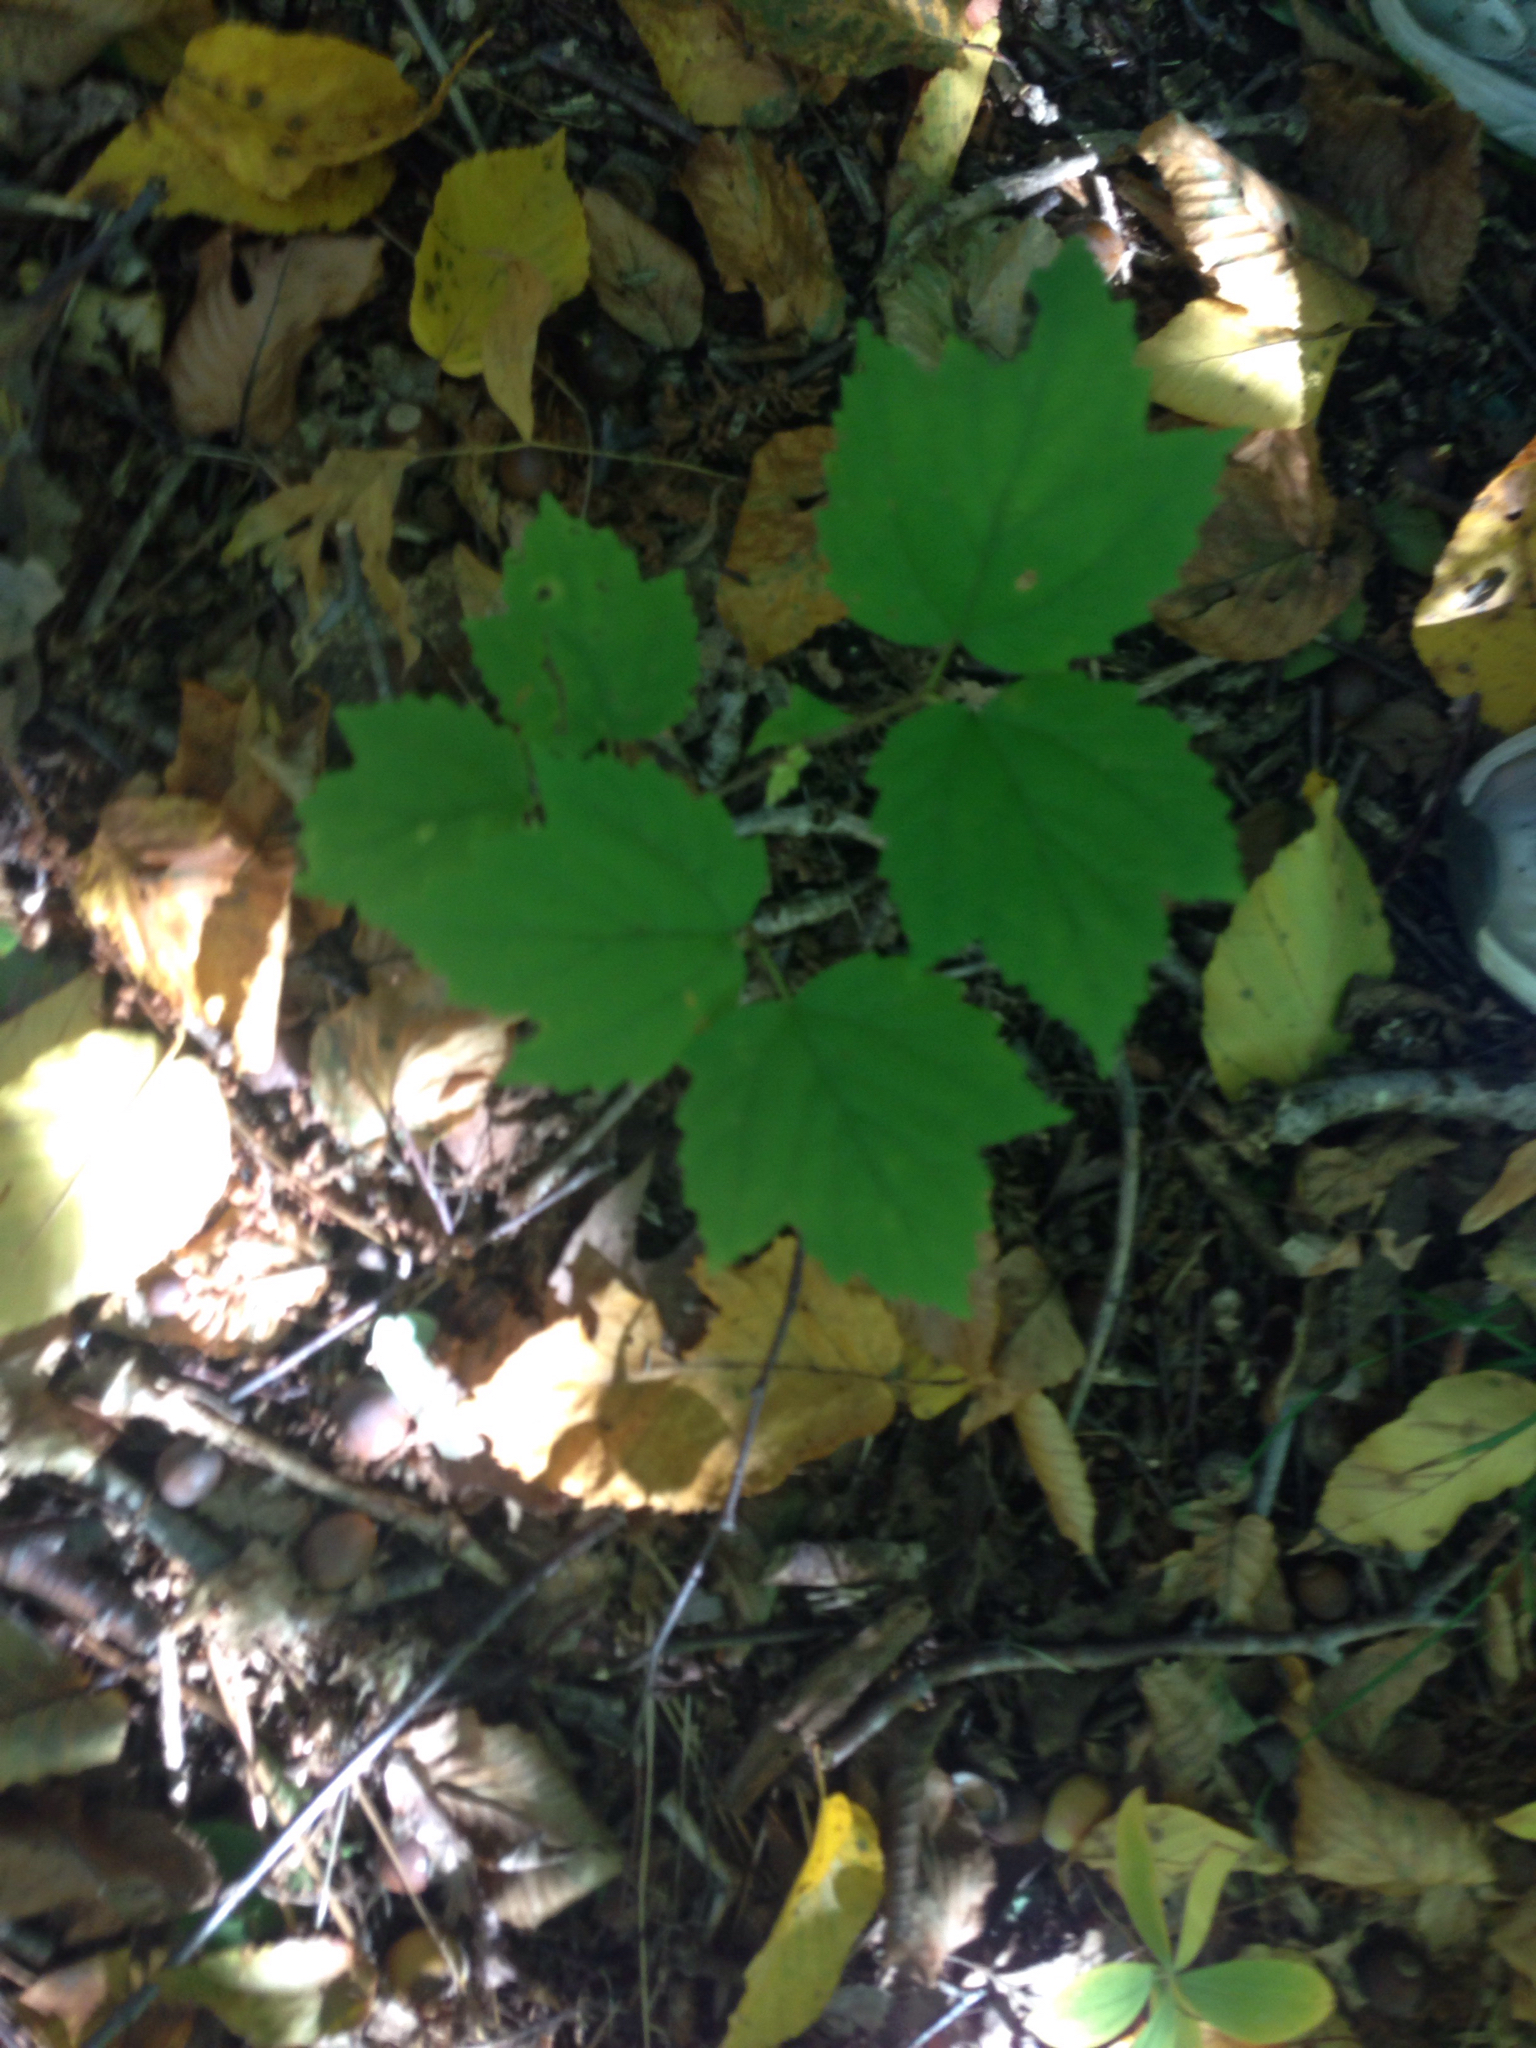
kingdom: Plantae
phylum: Tracheophyta
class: Magnoliopsida
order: Dipsacales
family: Viburnaceae
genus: Viburnum
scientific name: Viburnum acerifolium
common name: Dockmackie
